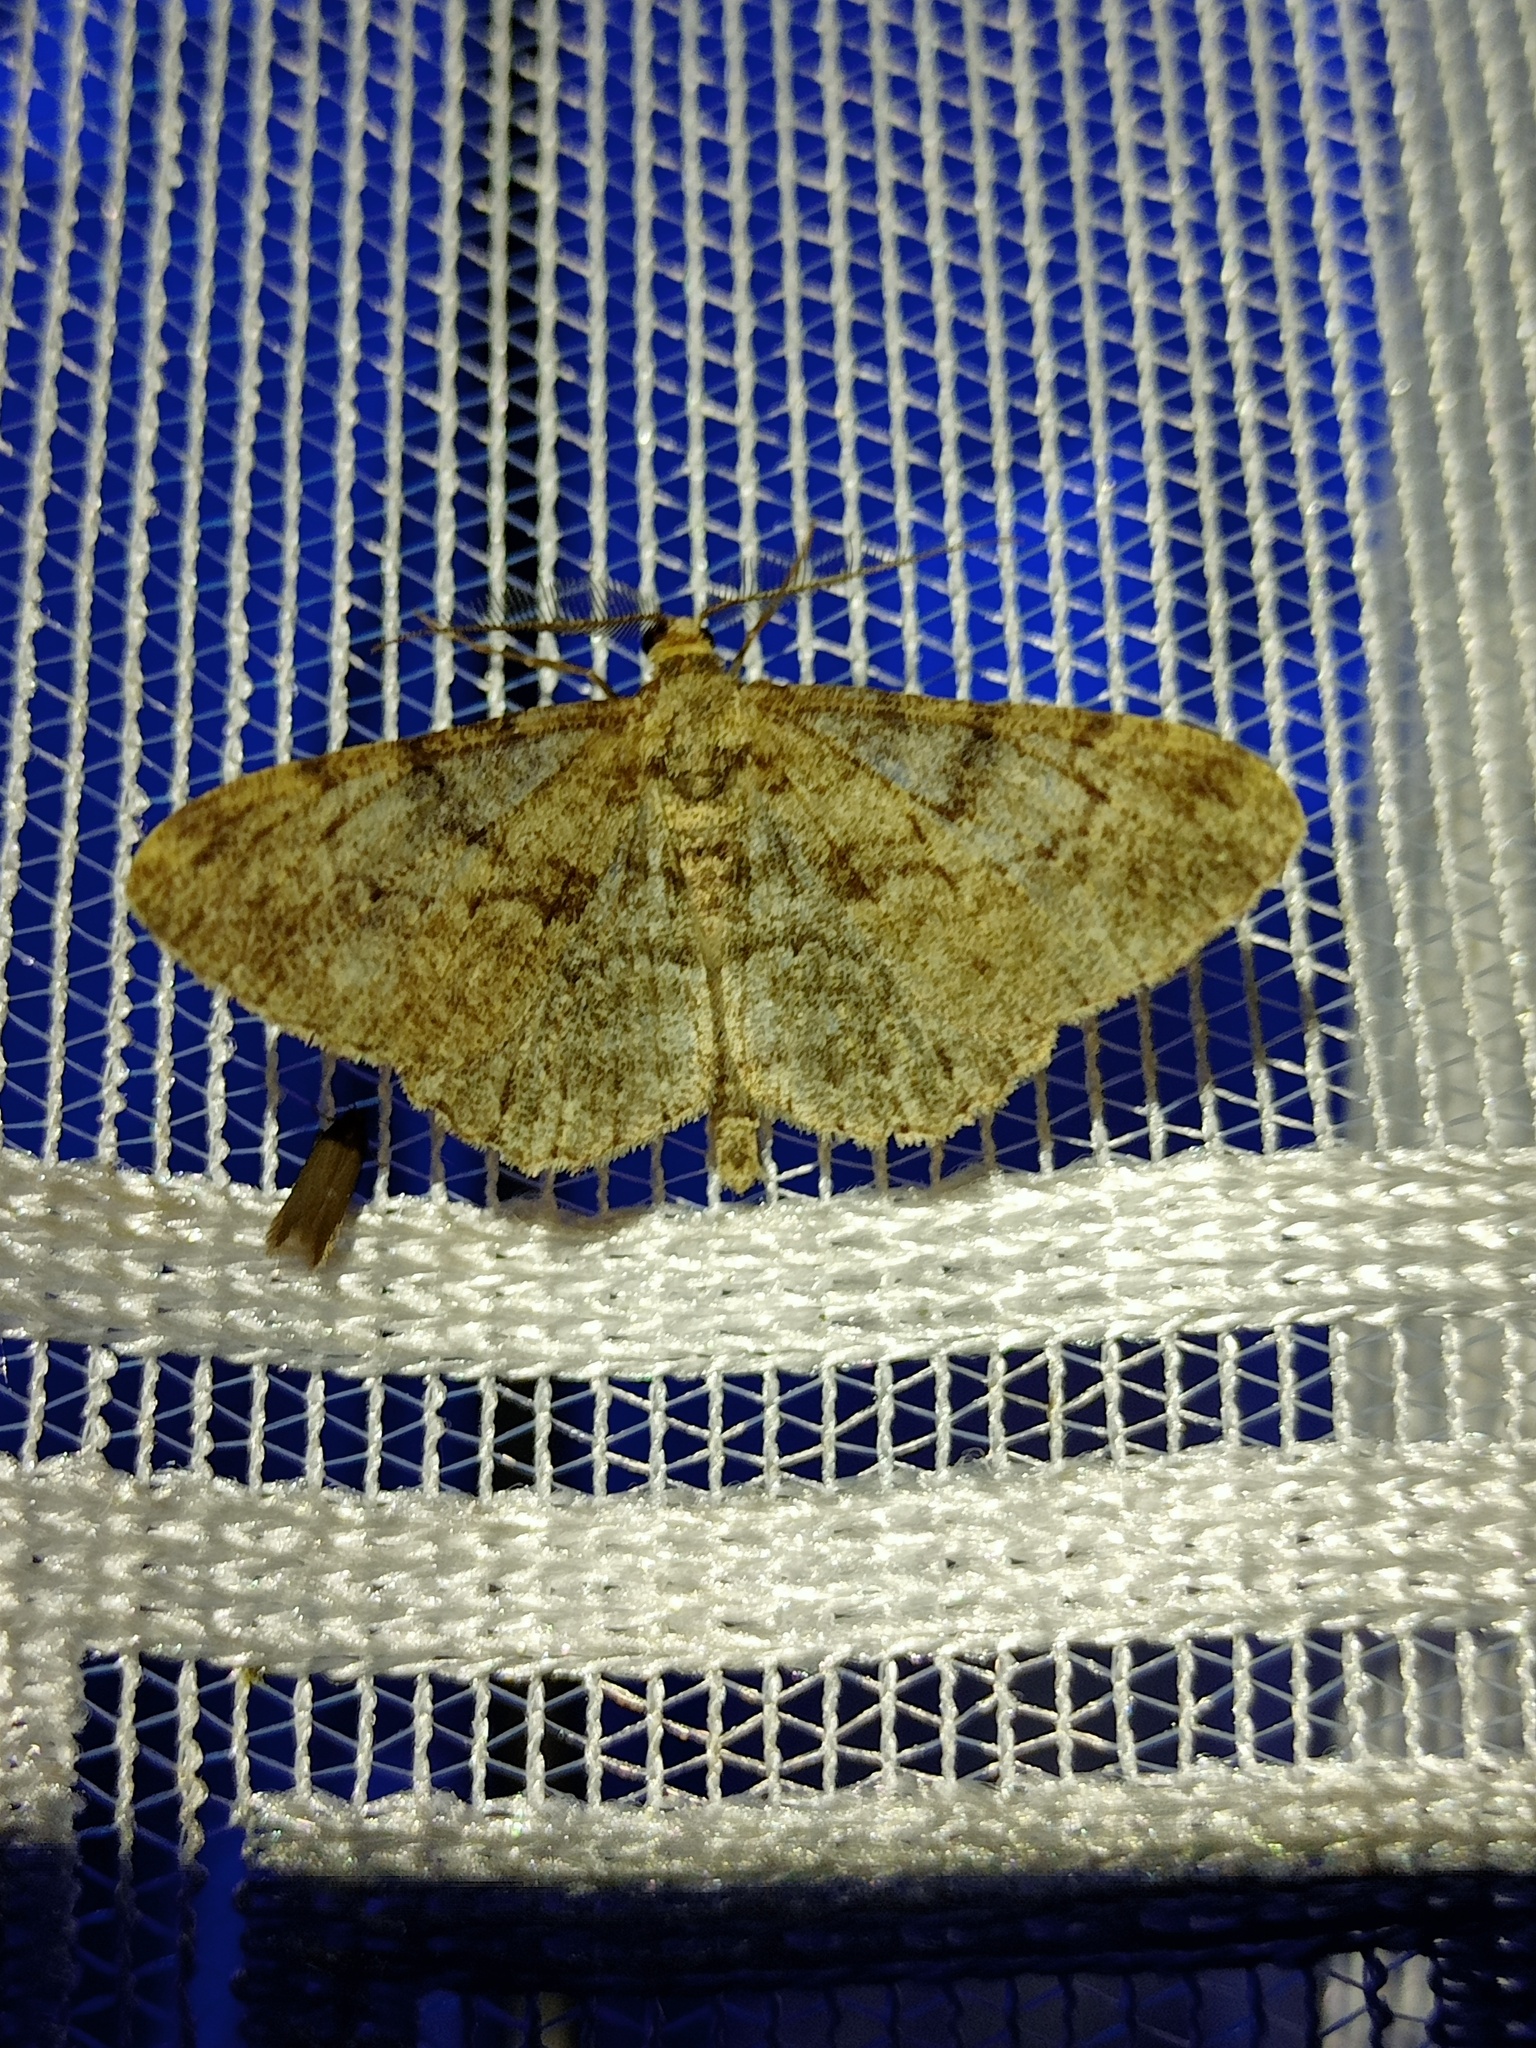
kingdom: Animalia
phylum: Arthropoda
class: Insecta
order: Lepidoptera
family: Geometridae
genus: Peribatodes
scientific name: Peribatodes rhomboidaria
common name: Willow beauty
